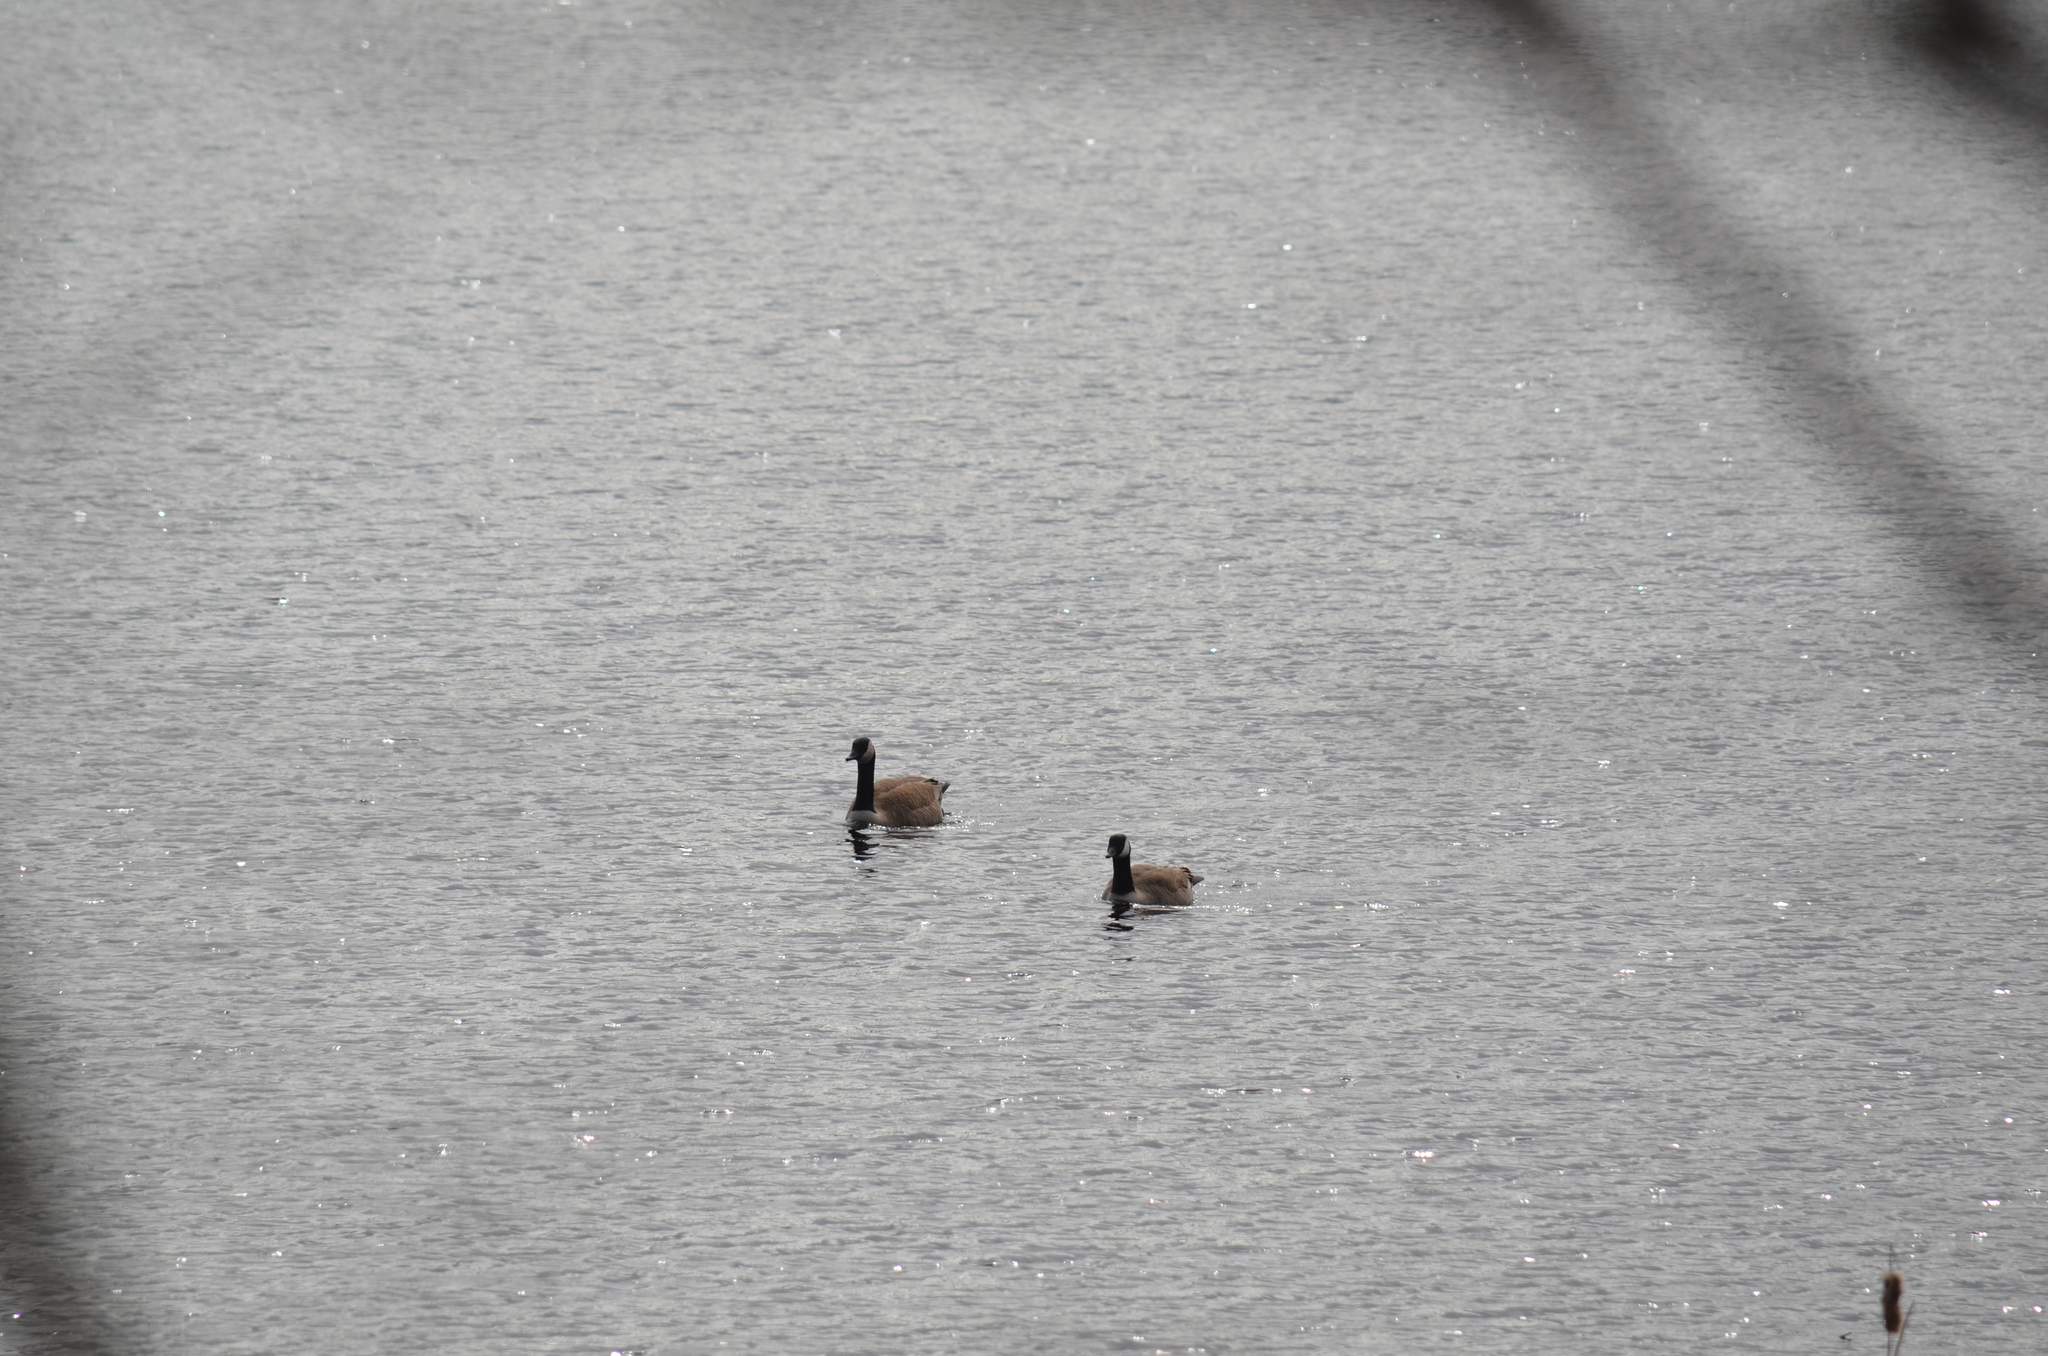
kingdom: Animalia
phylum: Chordata
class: Aves
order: Anseriformes
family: Anatidae
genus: Branta
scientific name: Branta canadensis
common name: Canada goose
